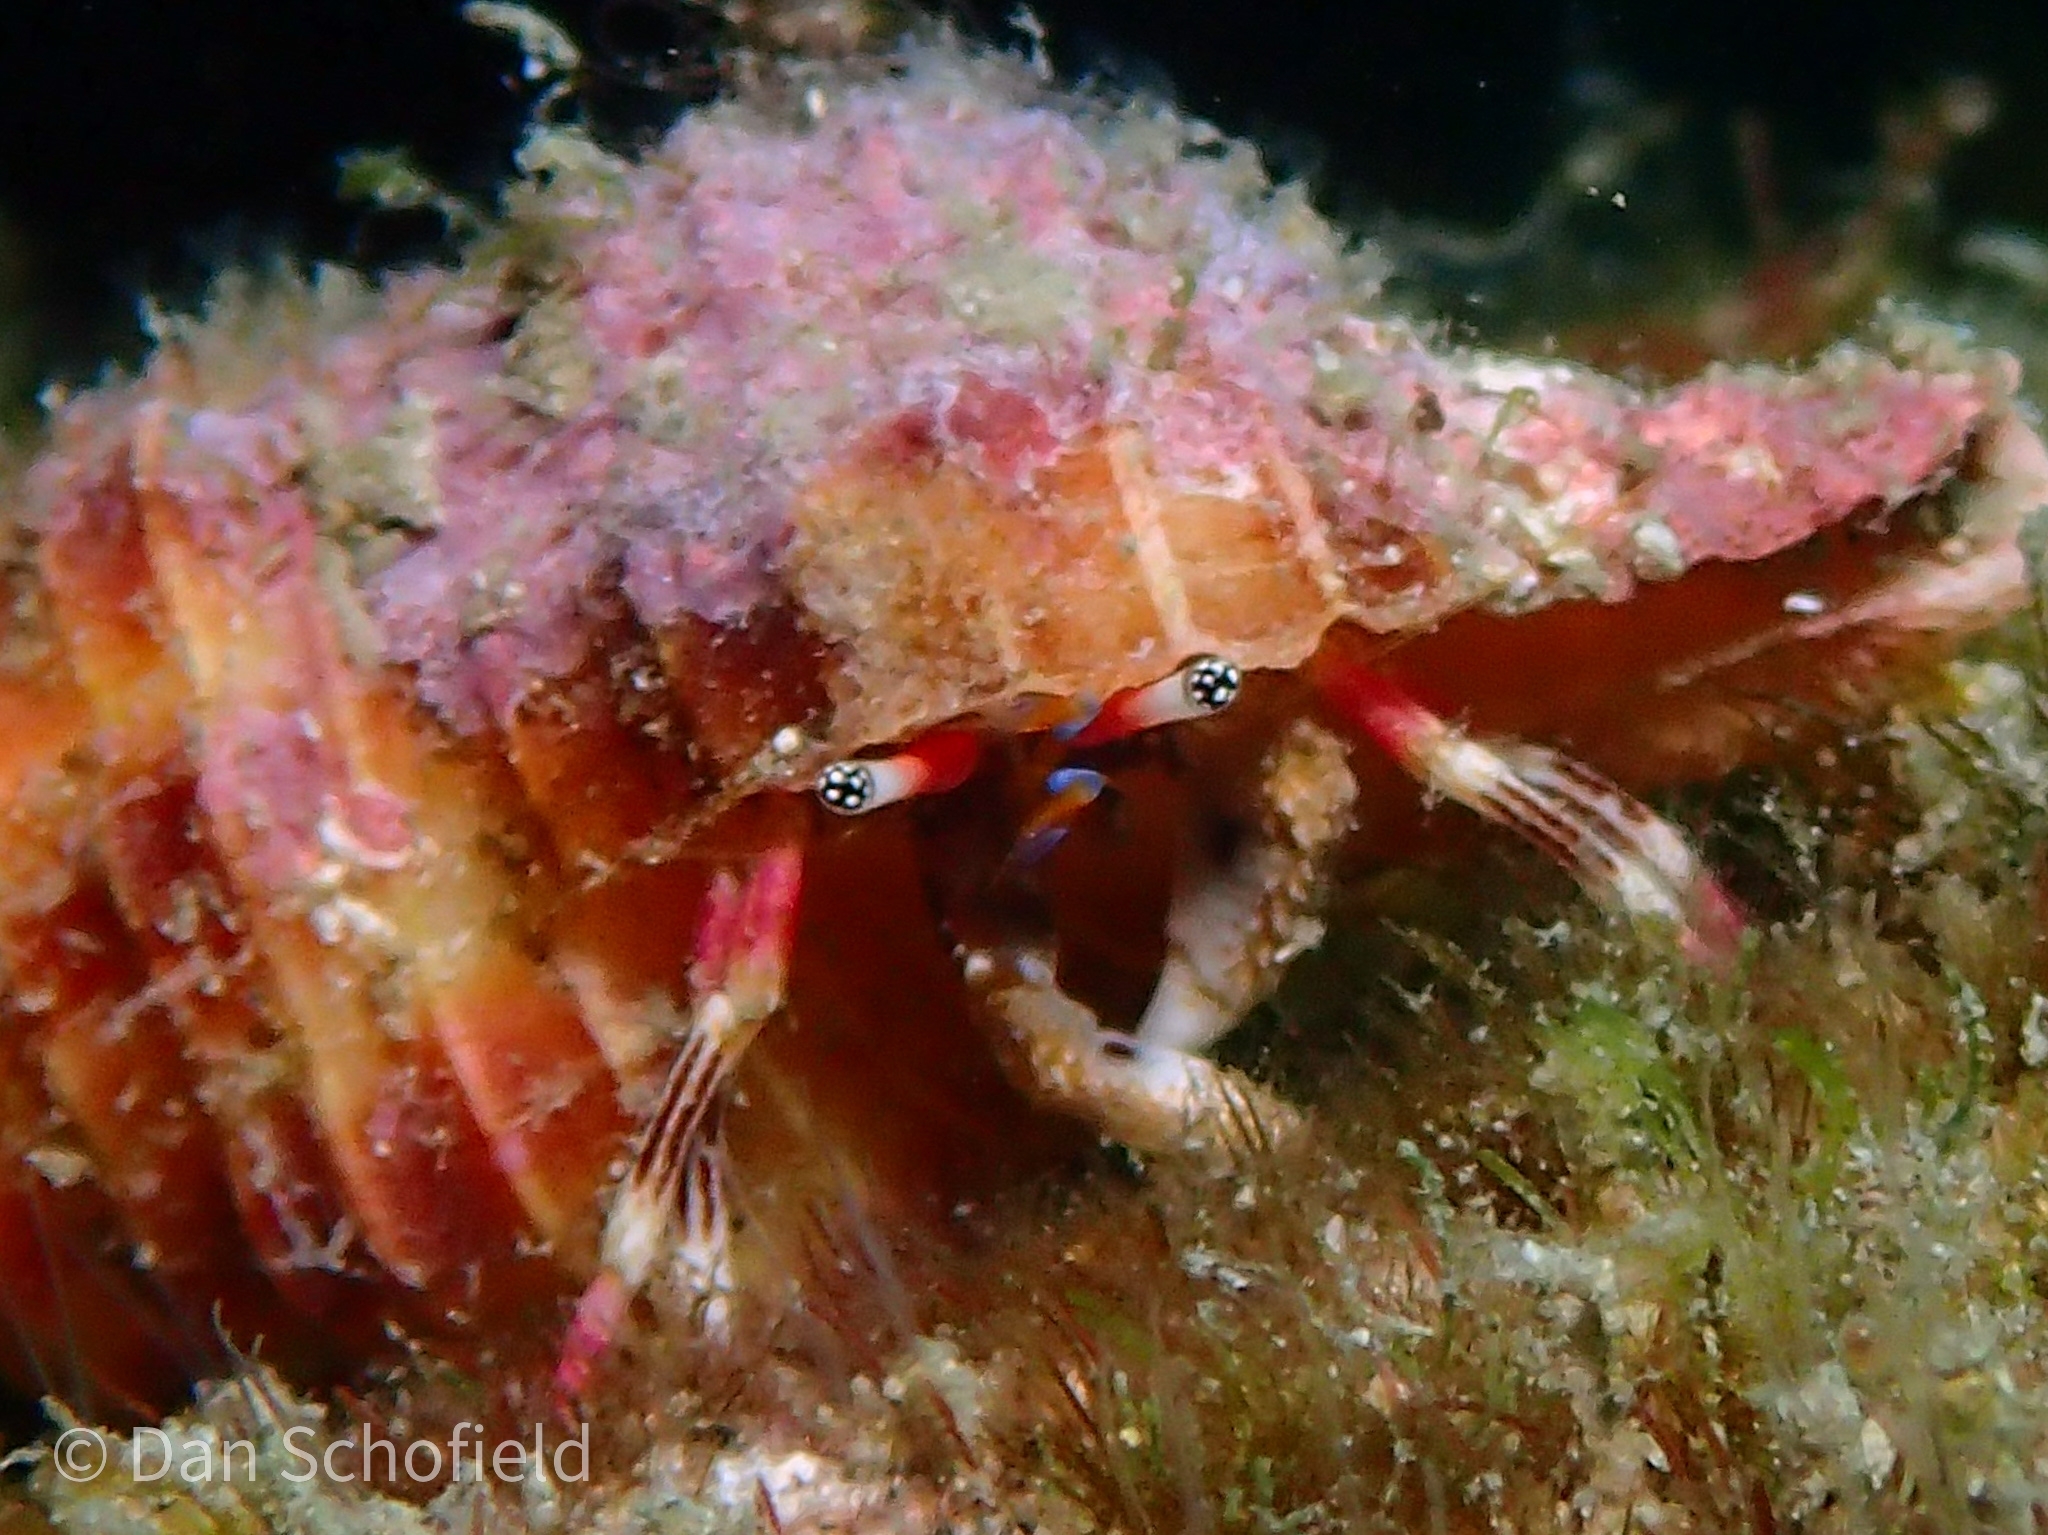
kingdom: Animalia
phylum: Arthropoda
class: Malacostraca
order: Decapoda
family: Diogenidae
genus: Calcinus
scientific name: Calcinus lineapropodus
